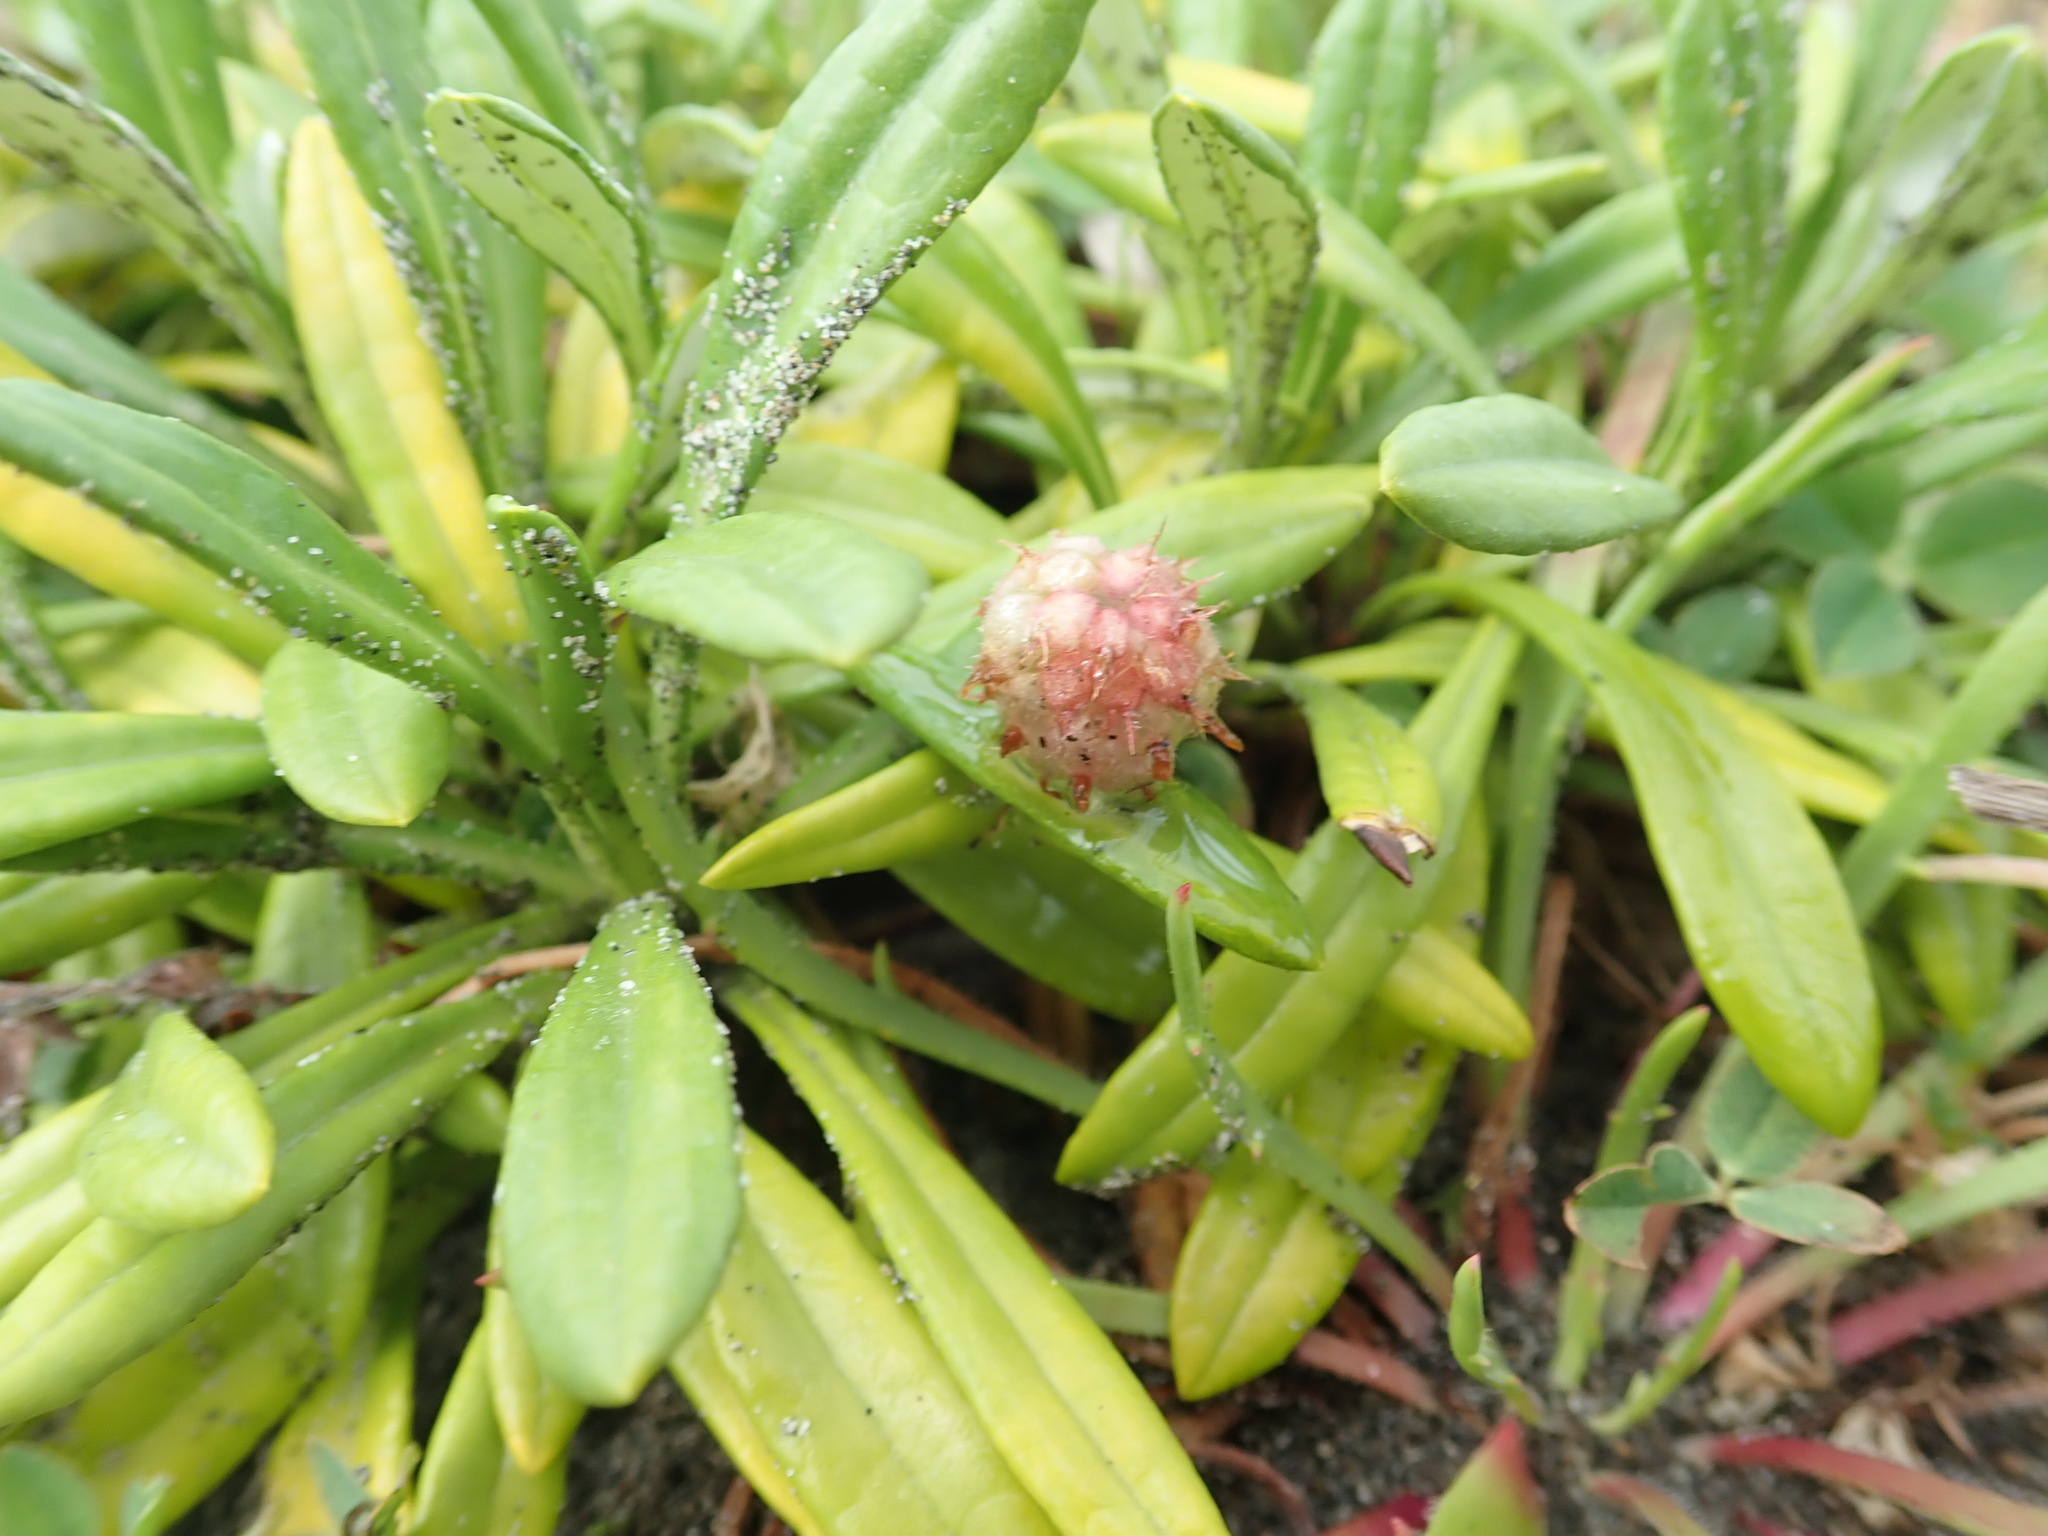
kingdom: Plantae
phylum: Tracheophyta
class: Magnoliopsida
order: Fabales
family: Fabaceae
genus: Trifolium
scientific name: Trifolium fragiferum
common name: Strawberry clover
